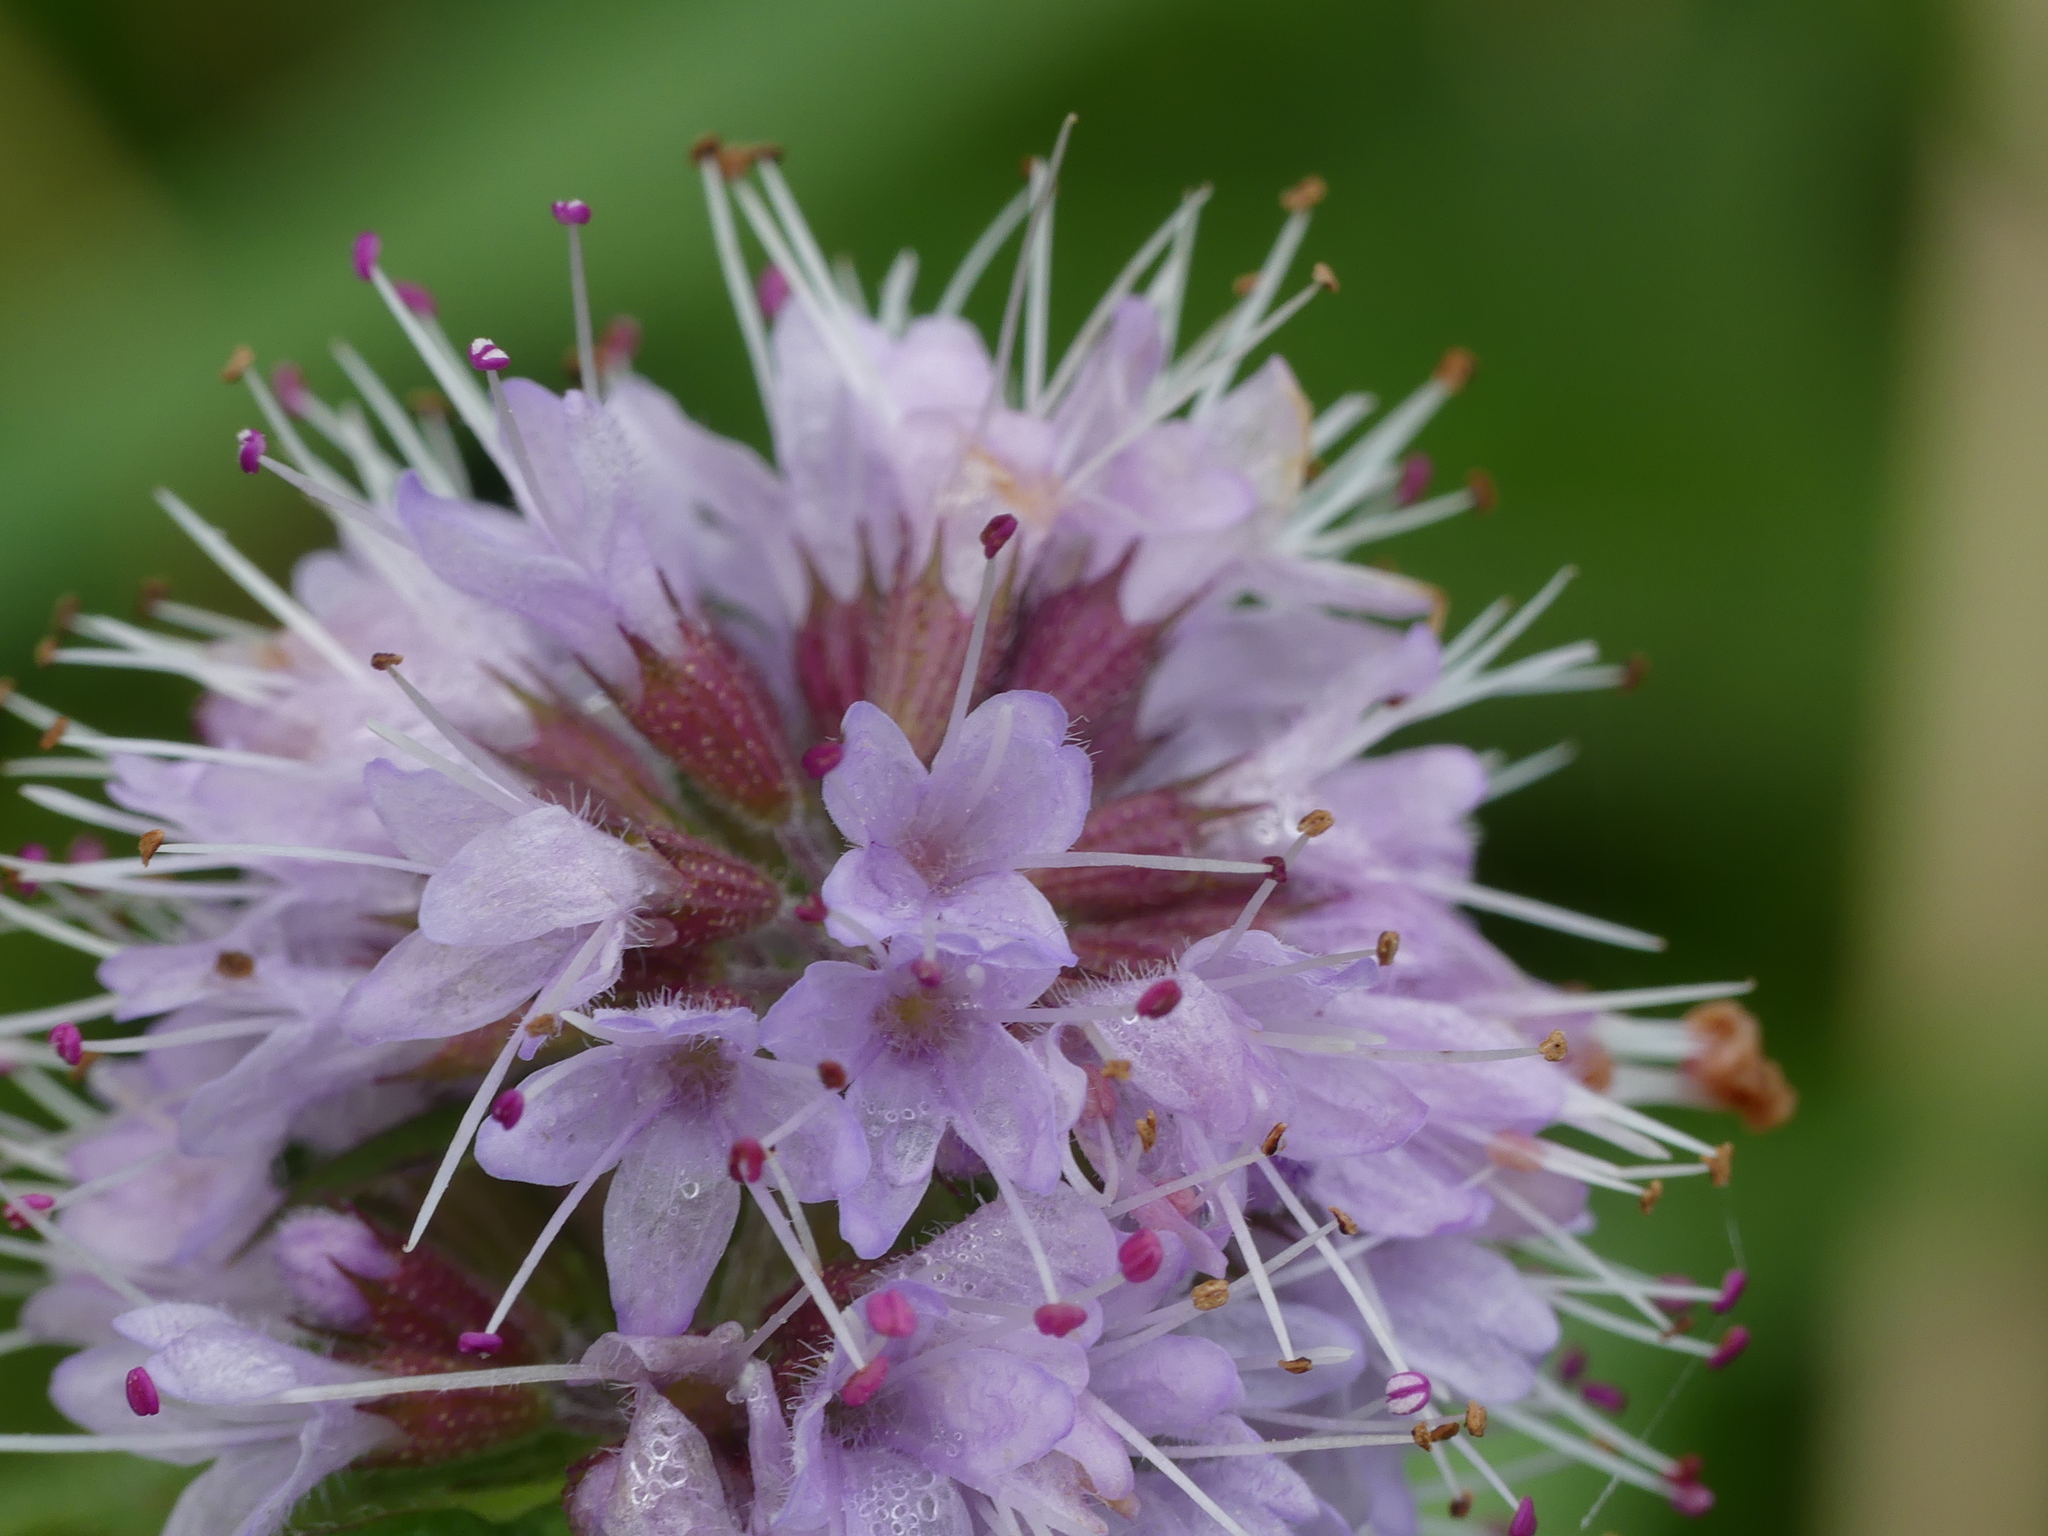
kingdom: Plantae
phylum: Tracheophyta
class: Magnoliopsida
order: Lamiales
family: Lamiaceae
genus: Mentha
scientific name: Mentha aquatica
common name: Water mint
